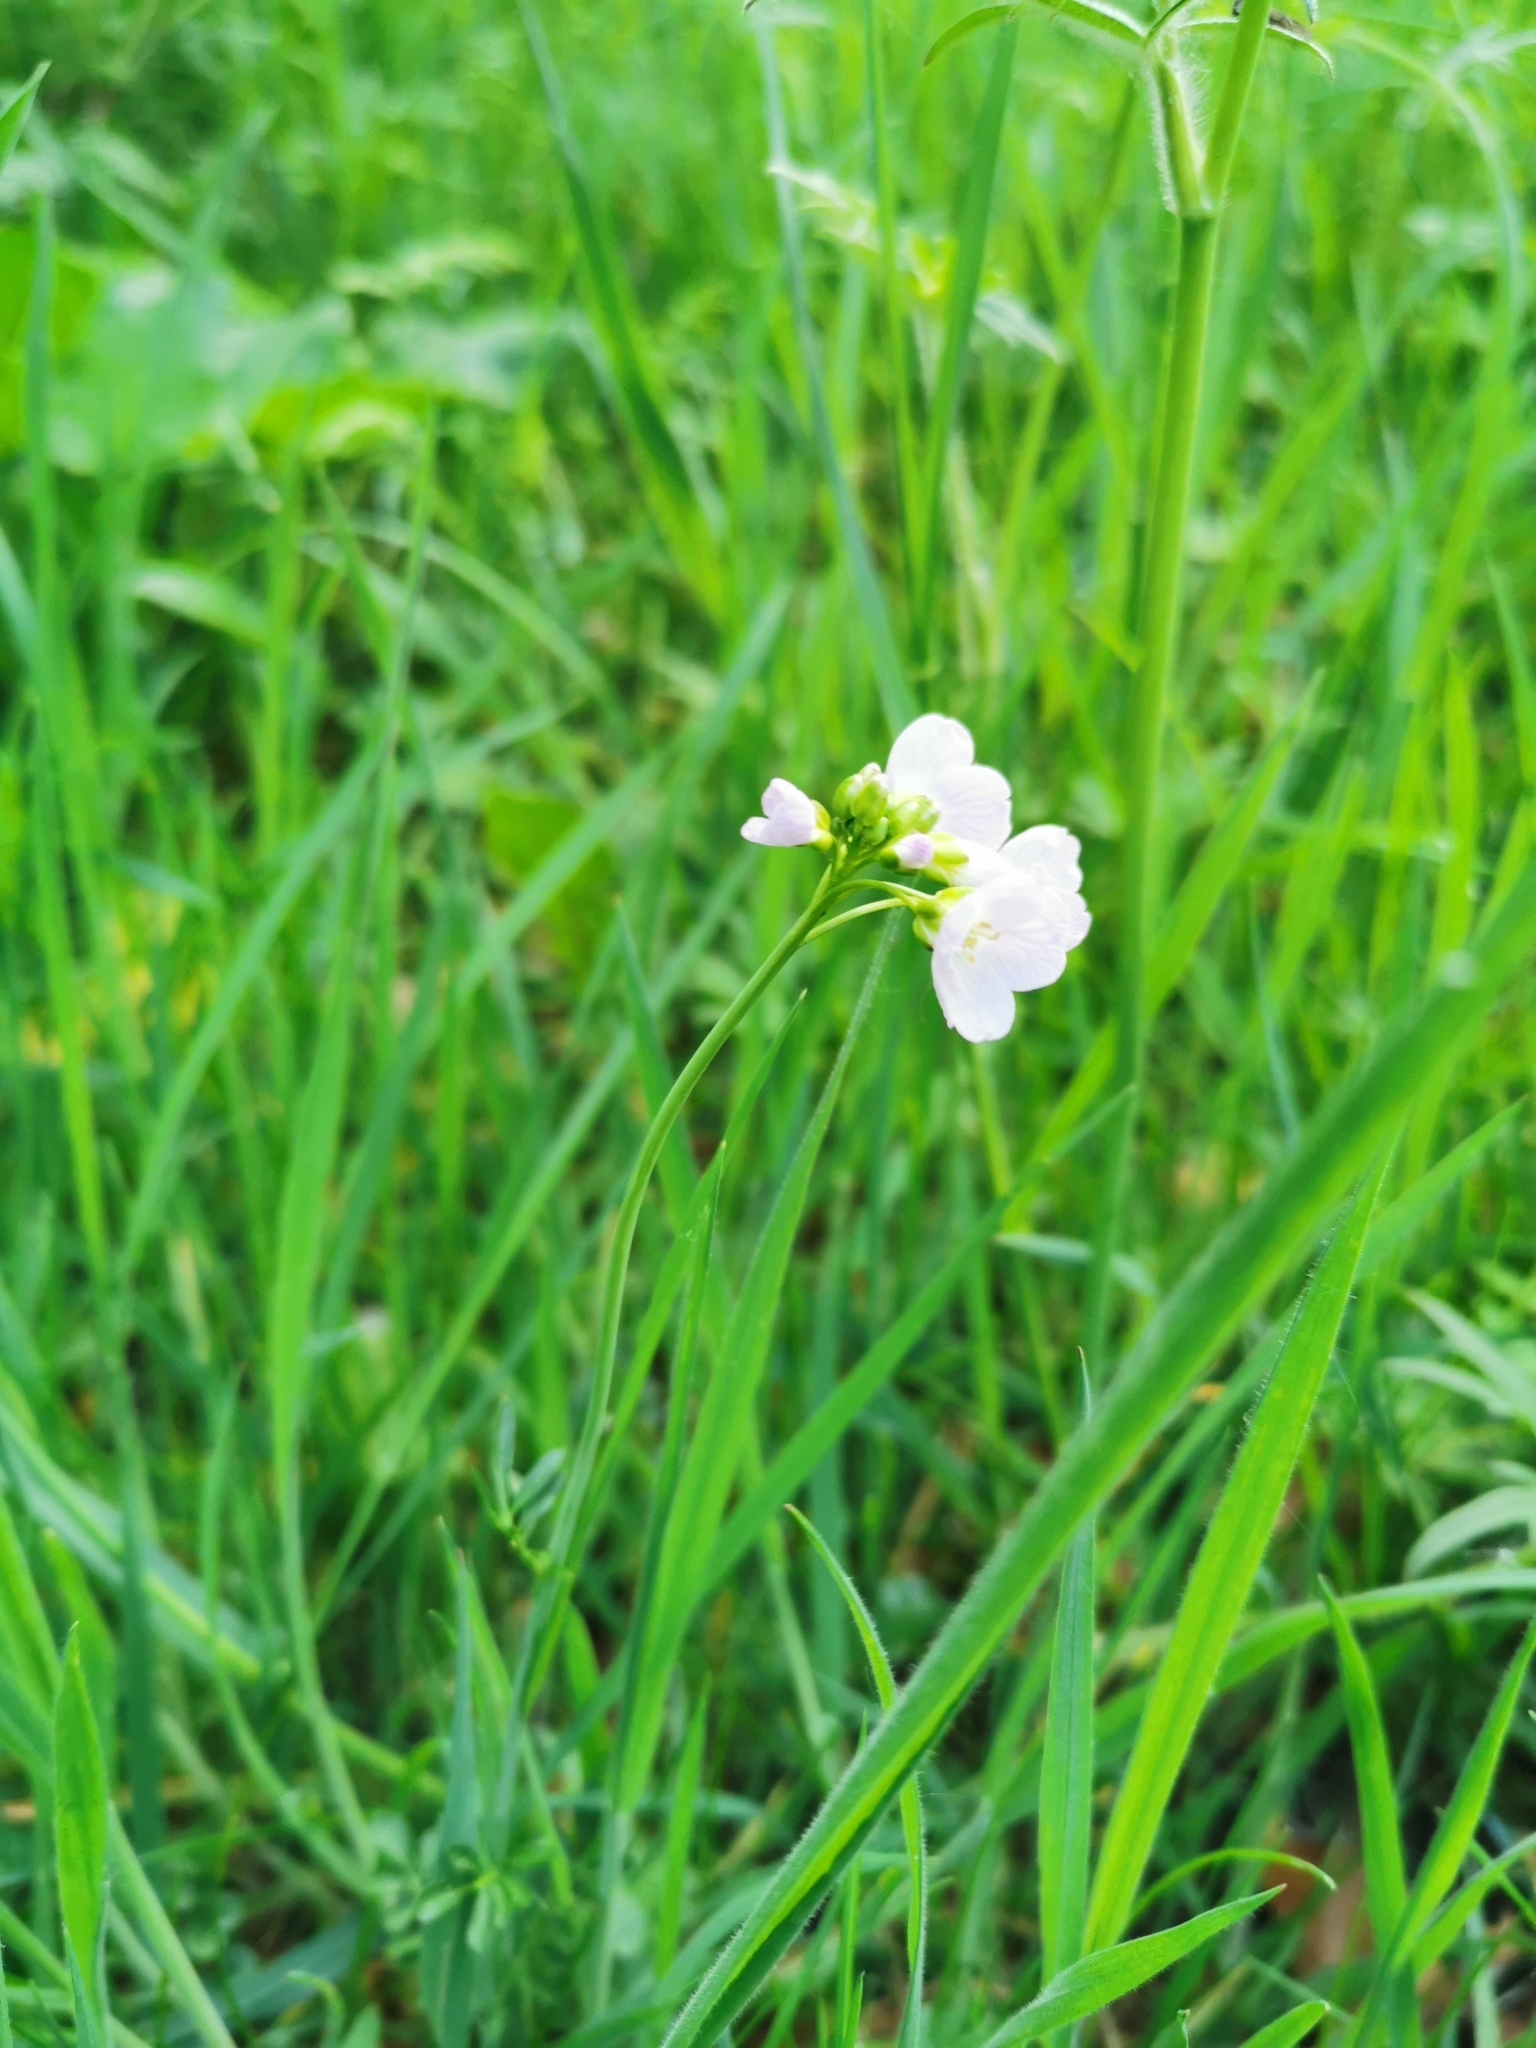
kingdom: Plantae
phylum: Tracheophyta
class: Magnoliopsida
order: Brassicales
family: Brassicaceae
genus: Cardamine
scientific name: Cardamine pratensis
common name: Cuckoo flower
